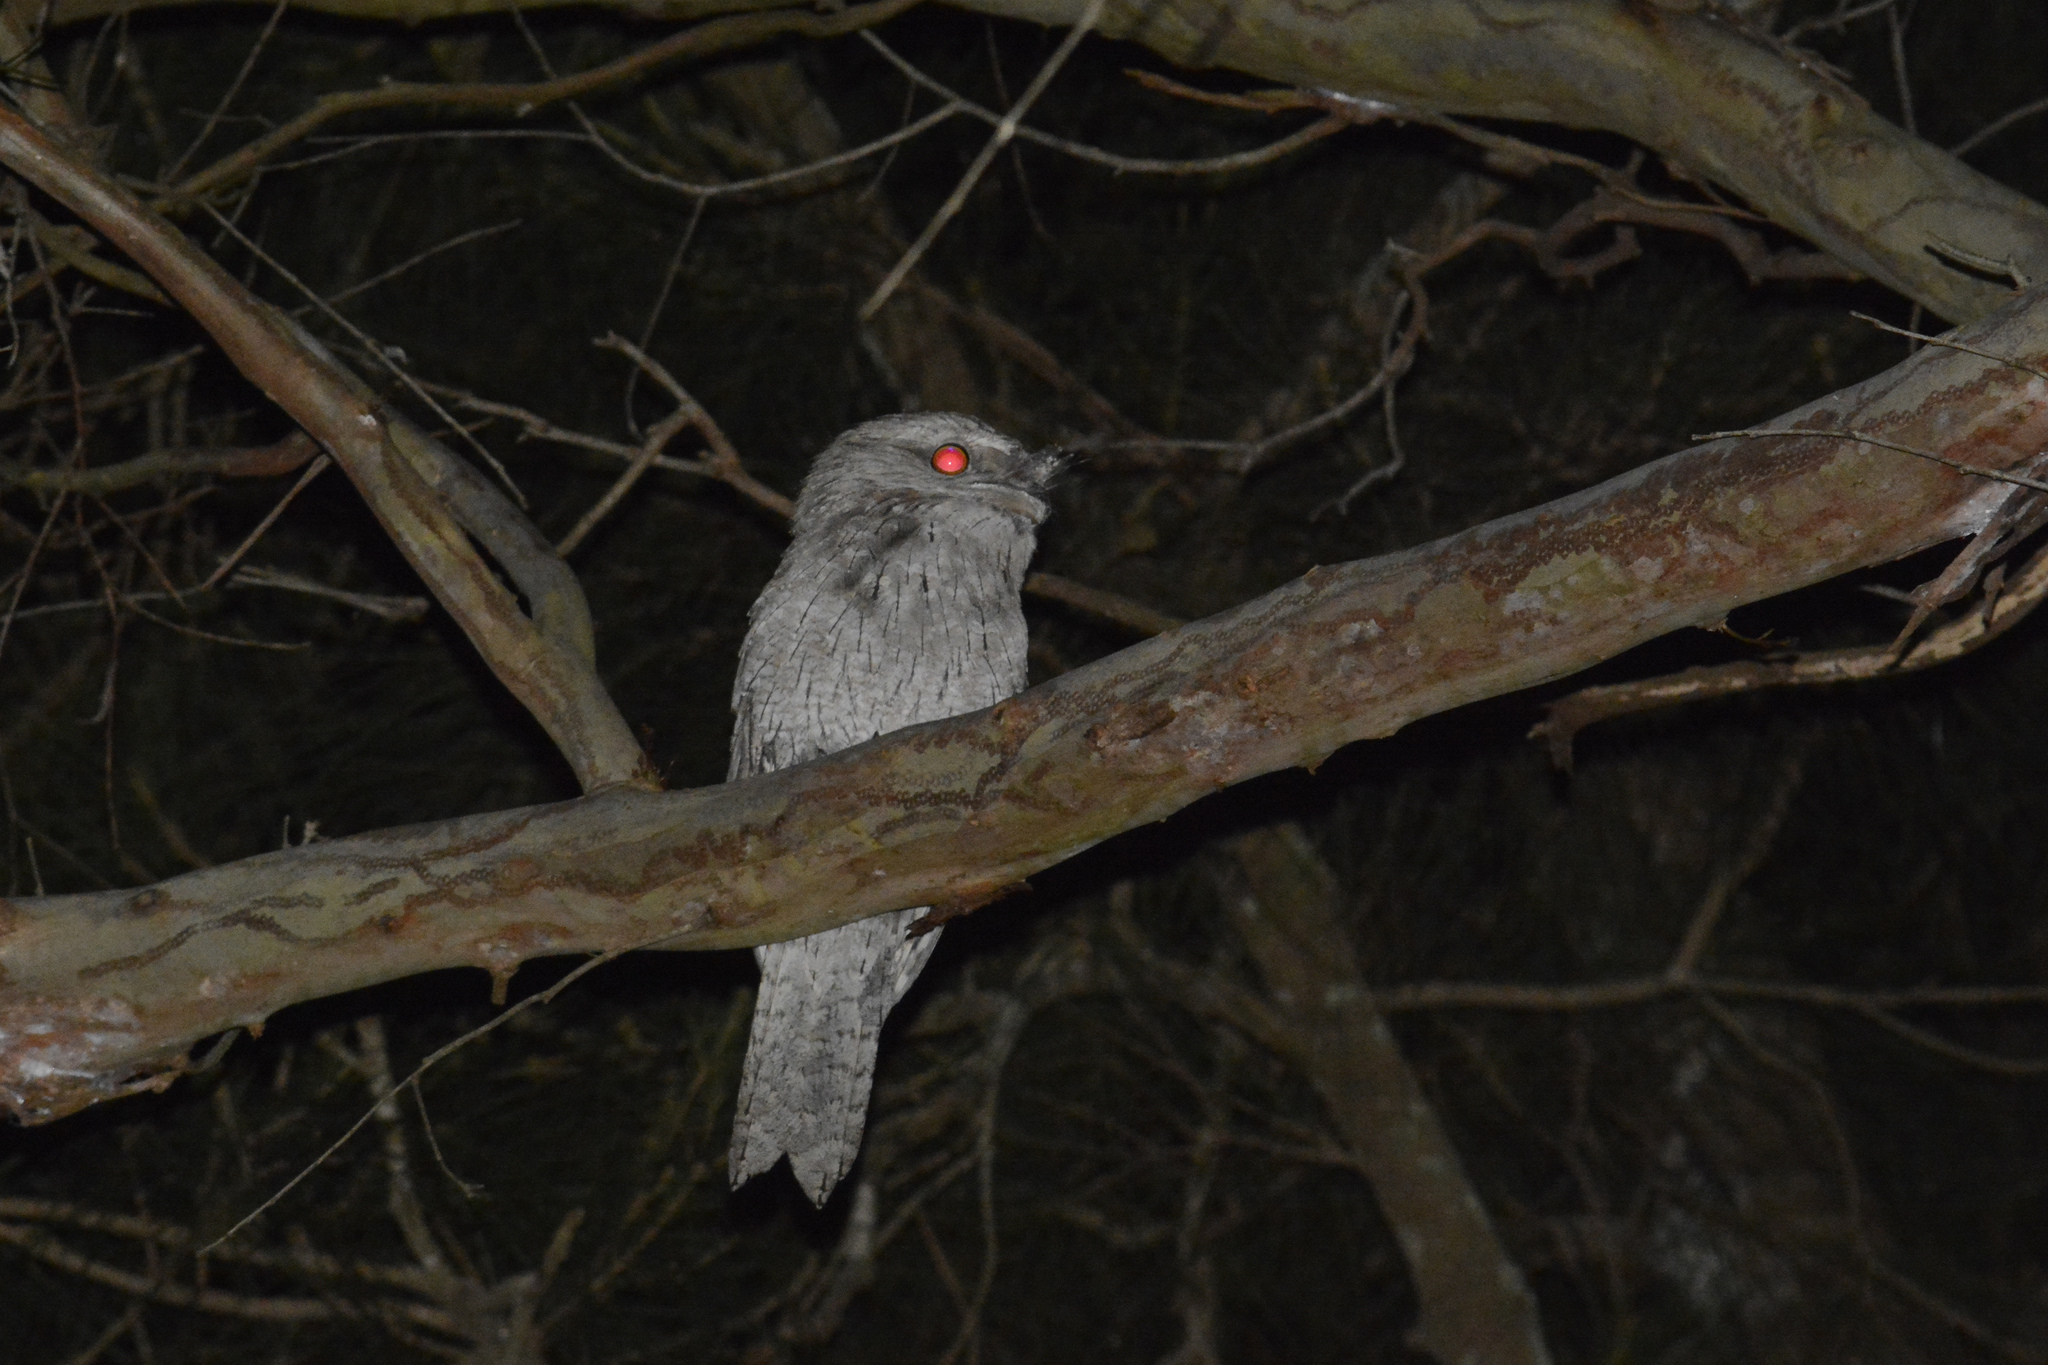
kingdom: Animalia
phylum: Chordata
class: Aves
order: Caprimulgiformes
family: Podargidae
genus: Podargus
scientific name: Podargus strigoides
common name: Tawny frogmouth
